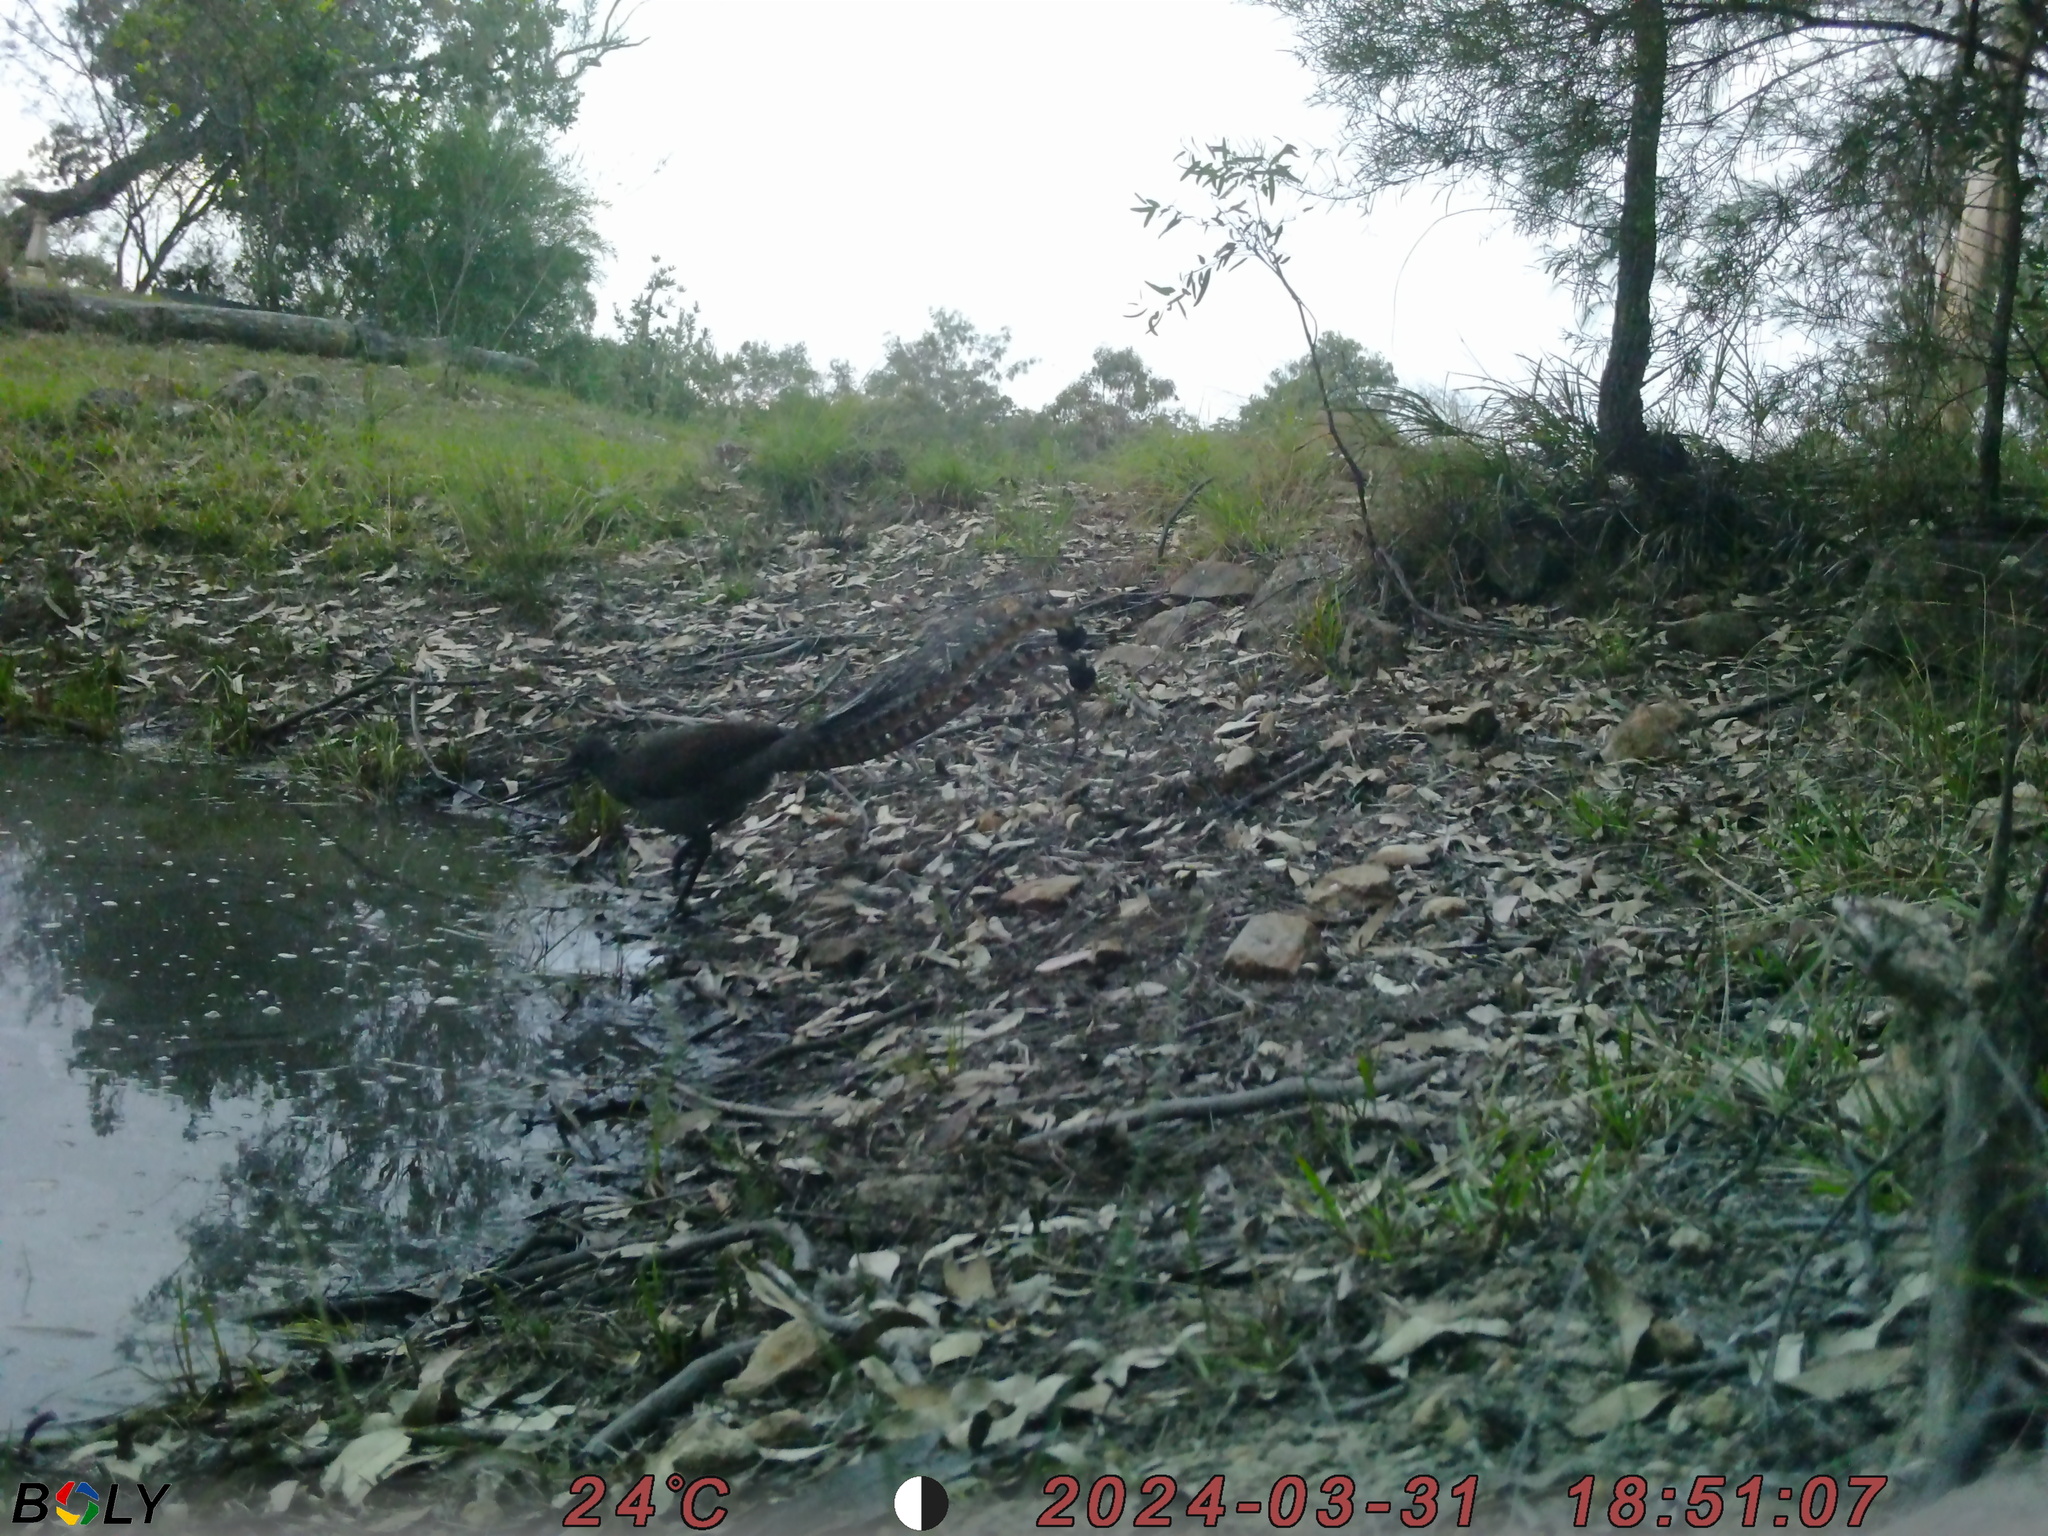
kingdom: Animalia
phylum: Chordata
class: Aves
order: Passeriformes
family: Menuridae
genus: Menura
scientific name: Menura novaehollandiae
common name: Superb lyrebird
